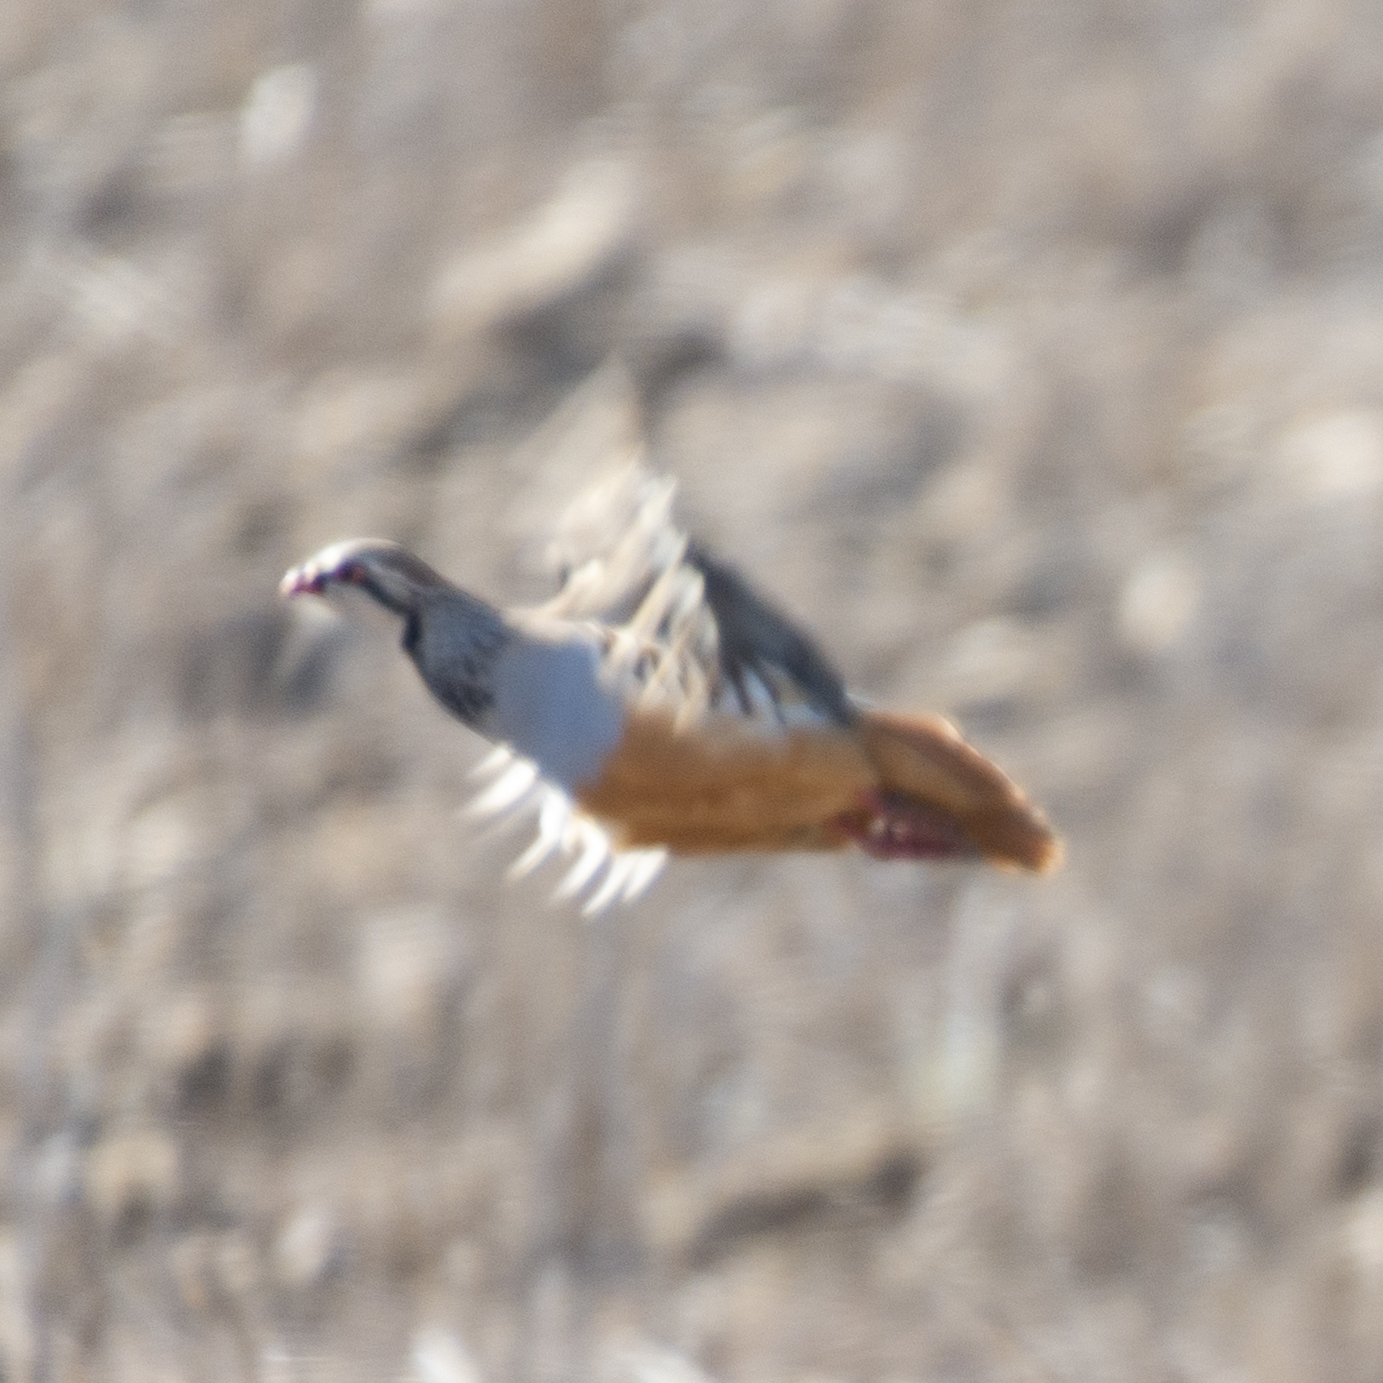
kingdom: Animalia
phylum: Chordata
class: Aves
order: Galliformes
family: Phasianidae
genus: Alectoris
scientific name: Alectoris rufa
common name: Red-legged partridge
